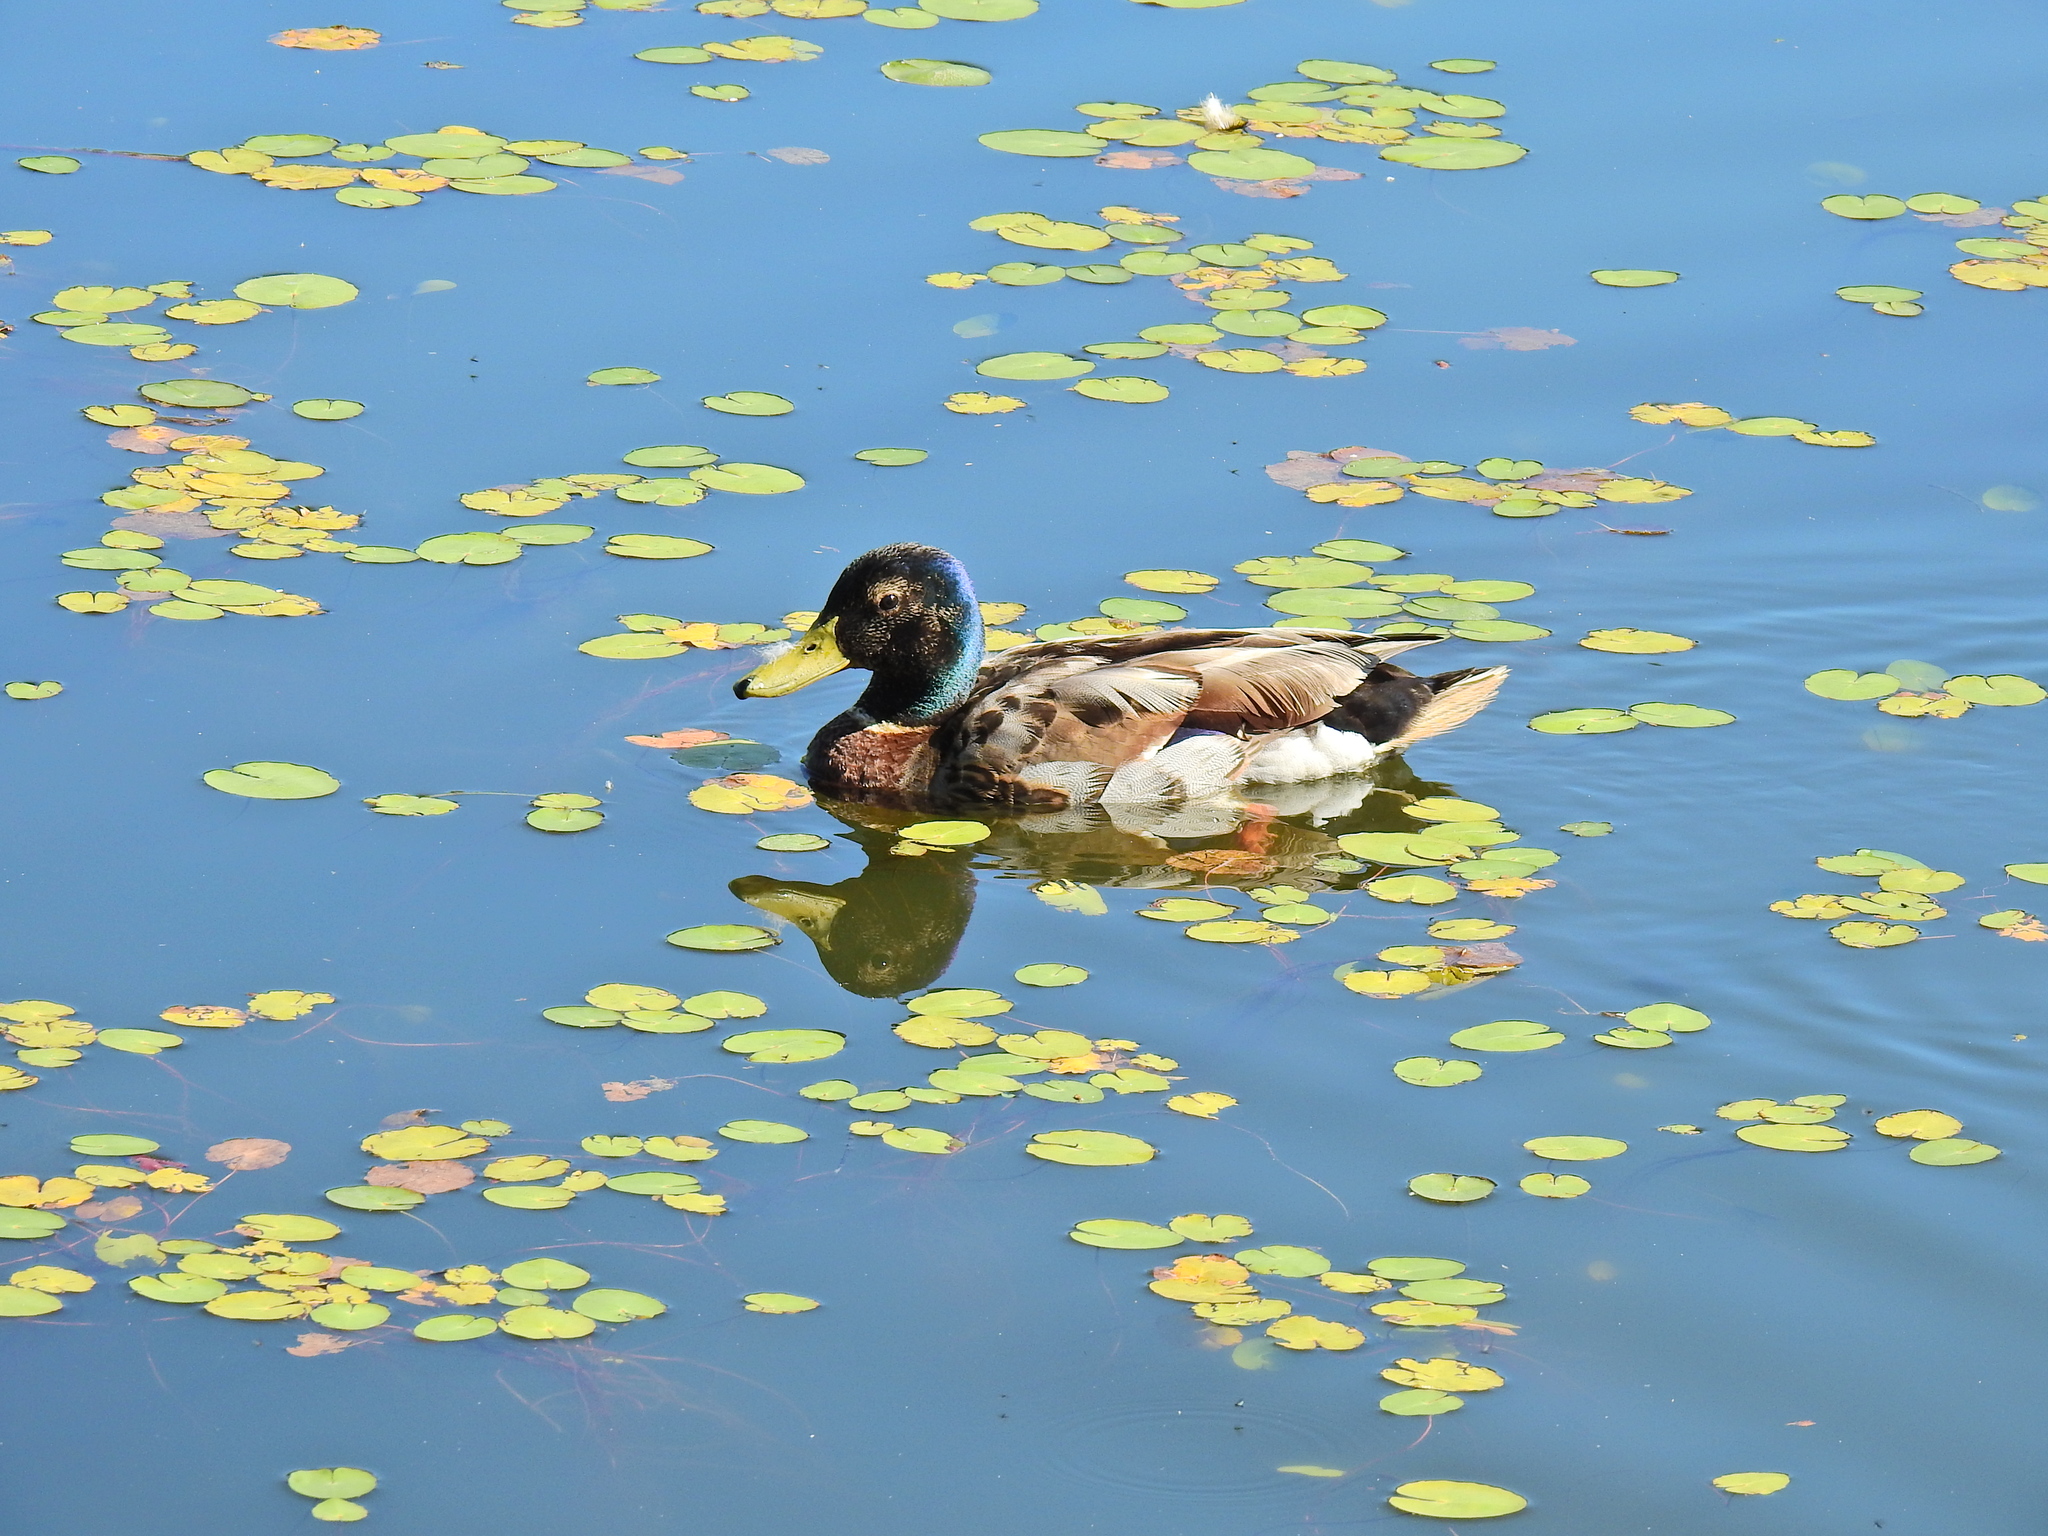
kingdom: Animalia
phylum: Chordata
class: Aves
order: Anseriformes
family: Anatidae
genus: Anas
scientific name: Anas platyrhynchos
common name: Mallard
